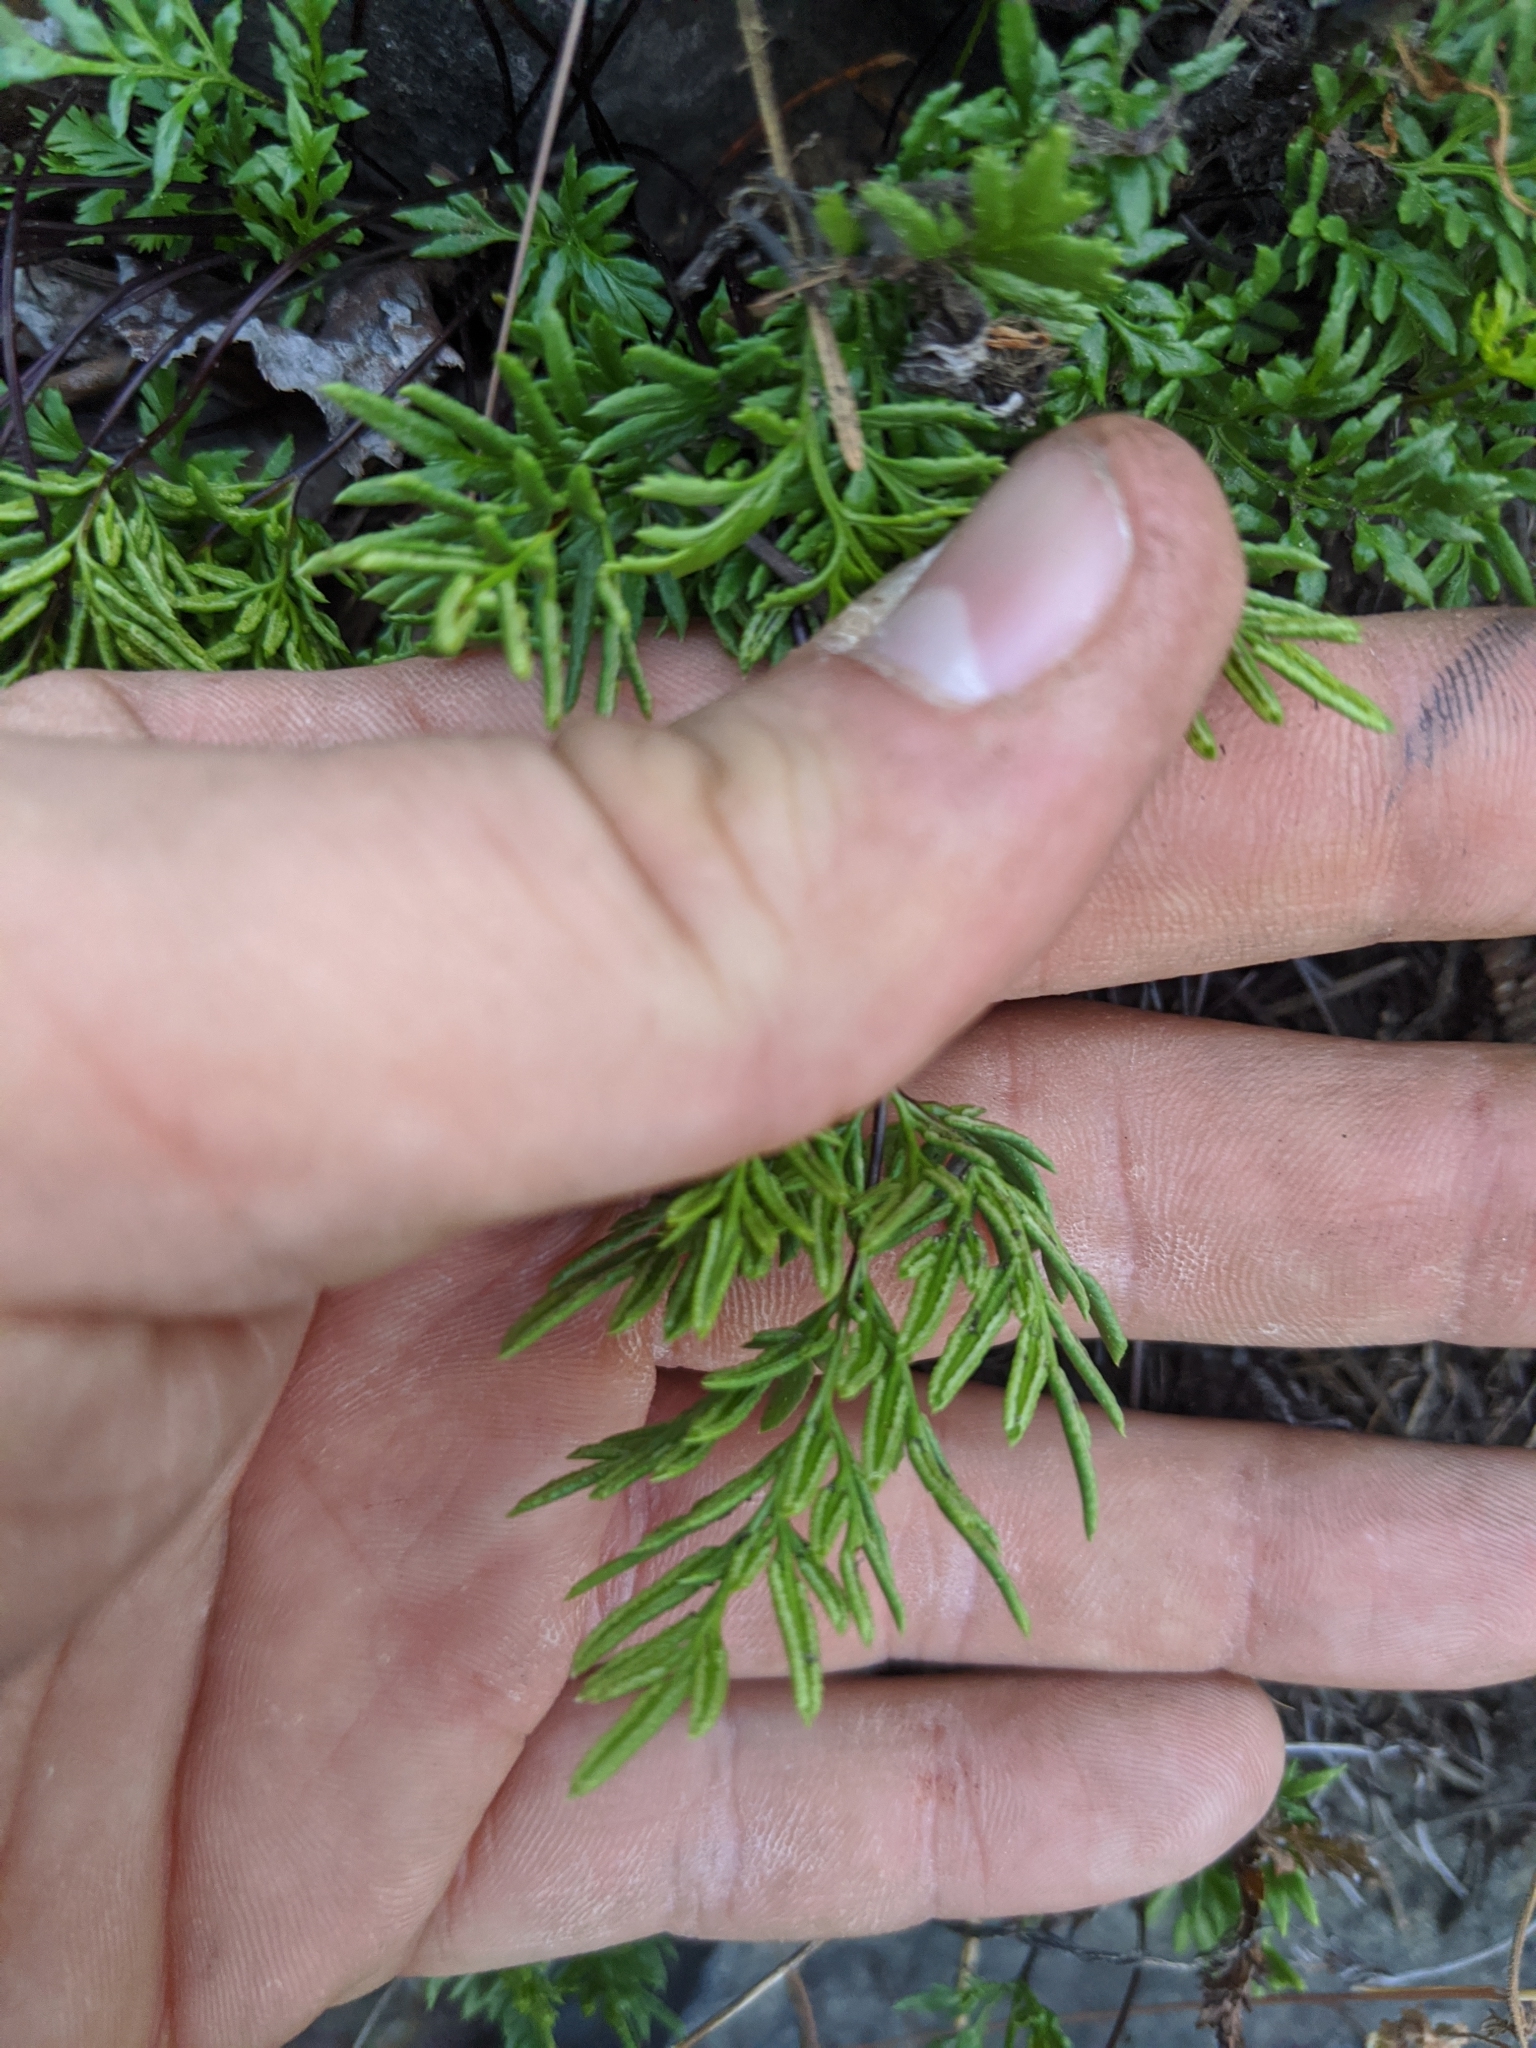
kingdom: Plantae
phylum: Tracheophyta
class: Polypodiopsida
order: Polypodiales
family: Pteridaceae
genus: Aspidotis
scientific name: Aspidotis densa
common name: Indian's dream
